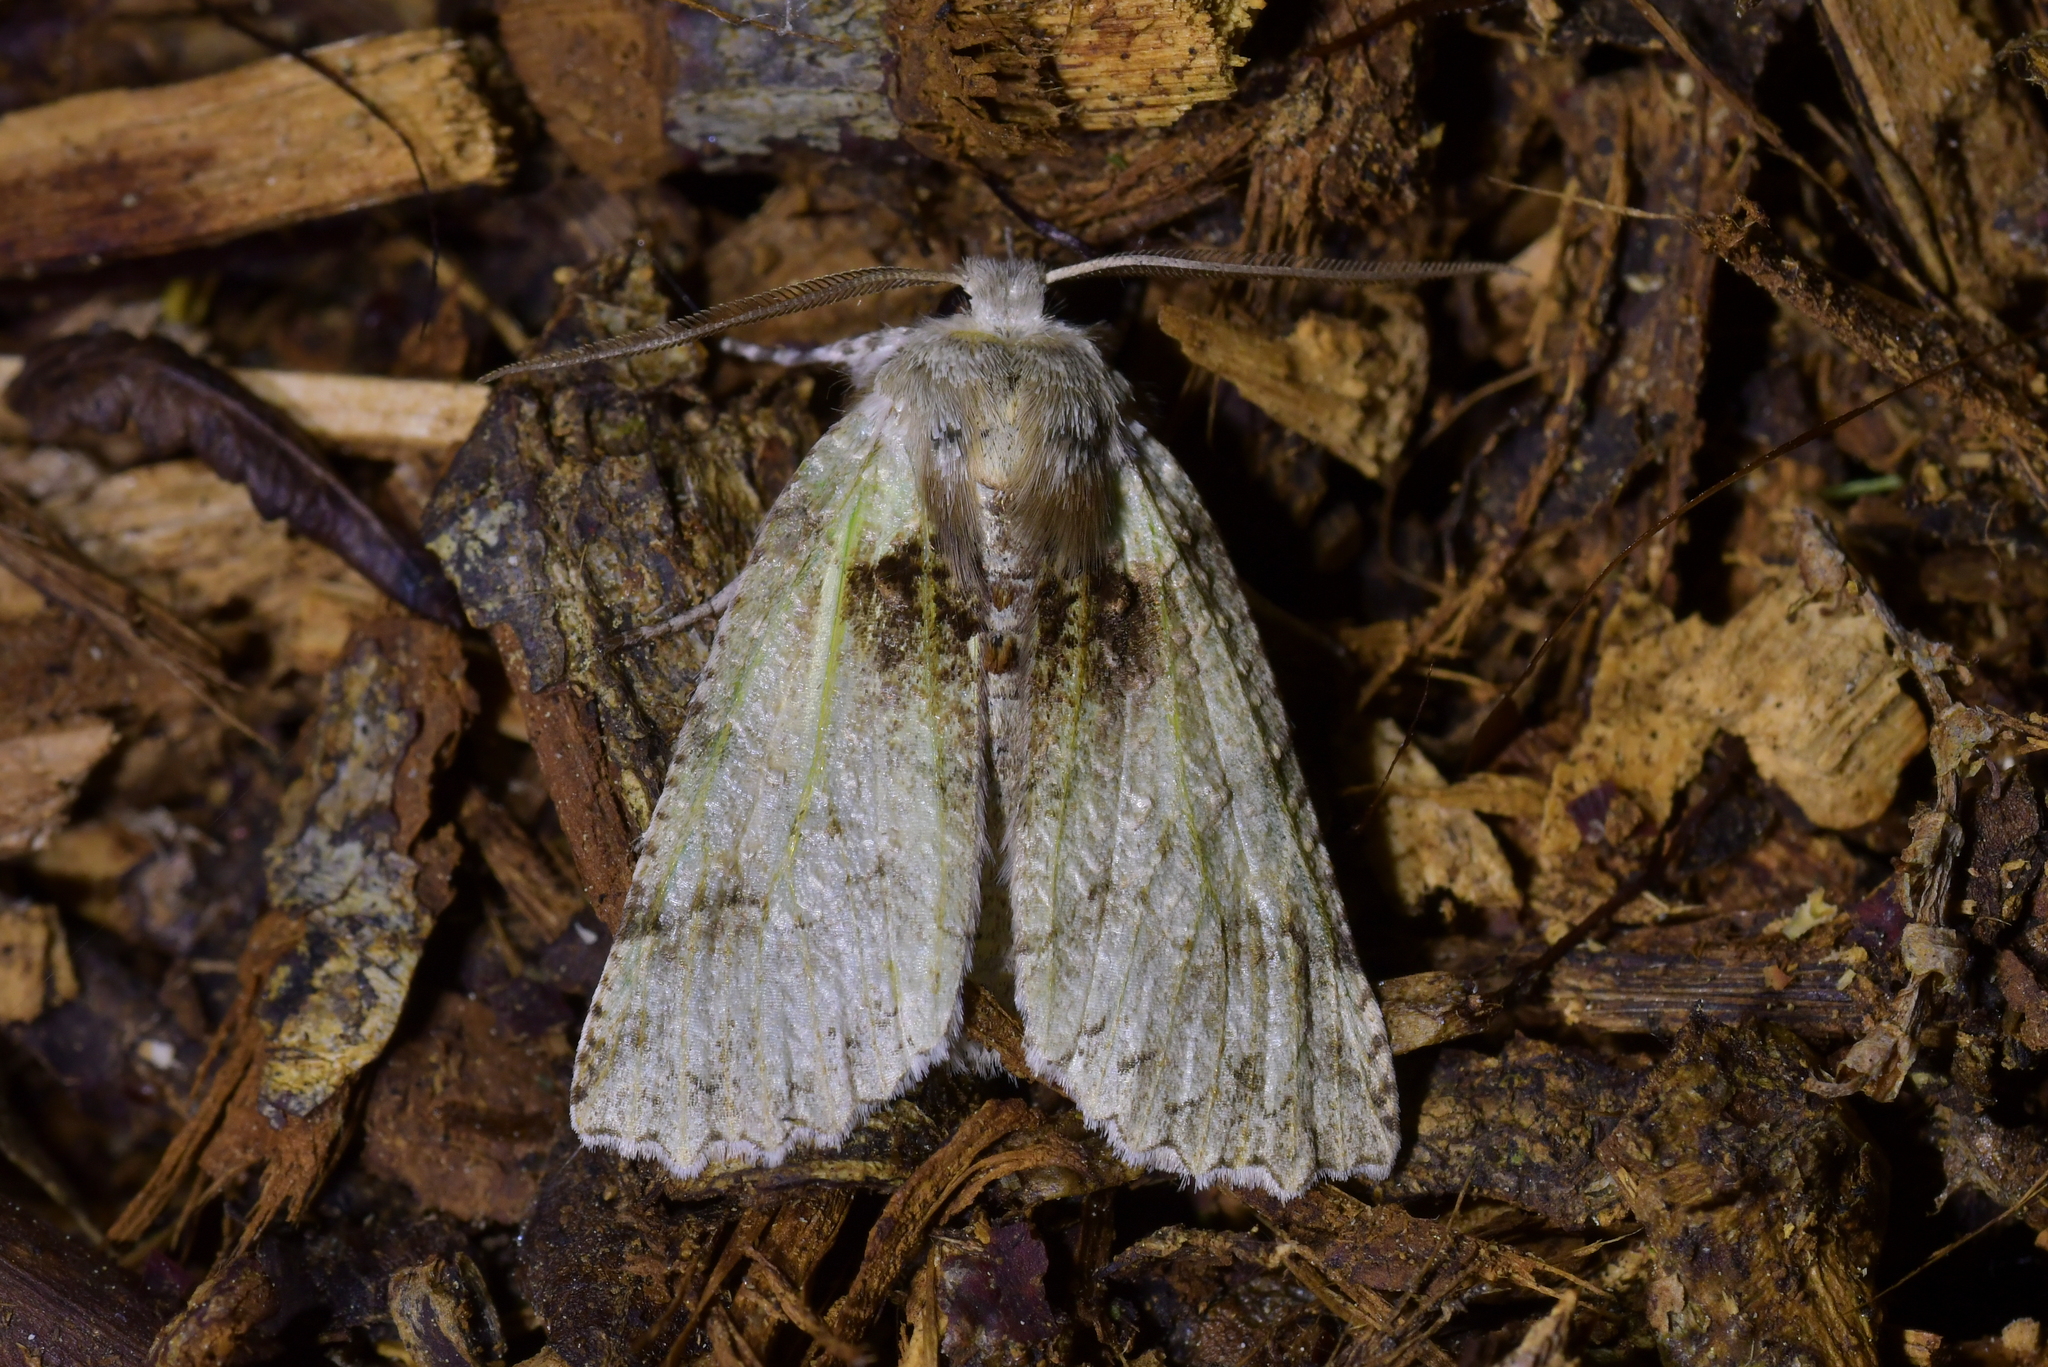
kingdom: Animalia
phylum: Arthropoda
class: Insecta
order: Lepidoptera
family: Geometridae
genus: Declana
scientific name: Declana floccosa
